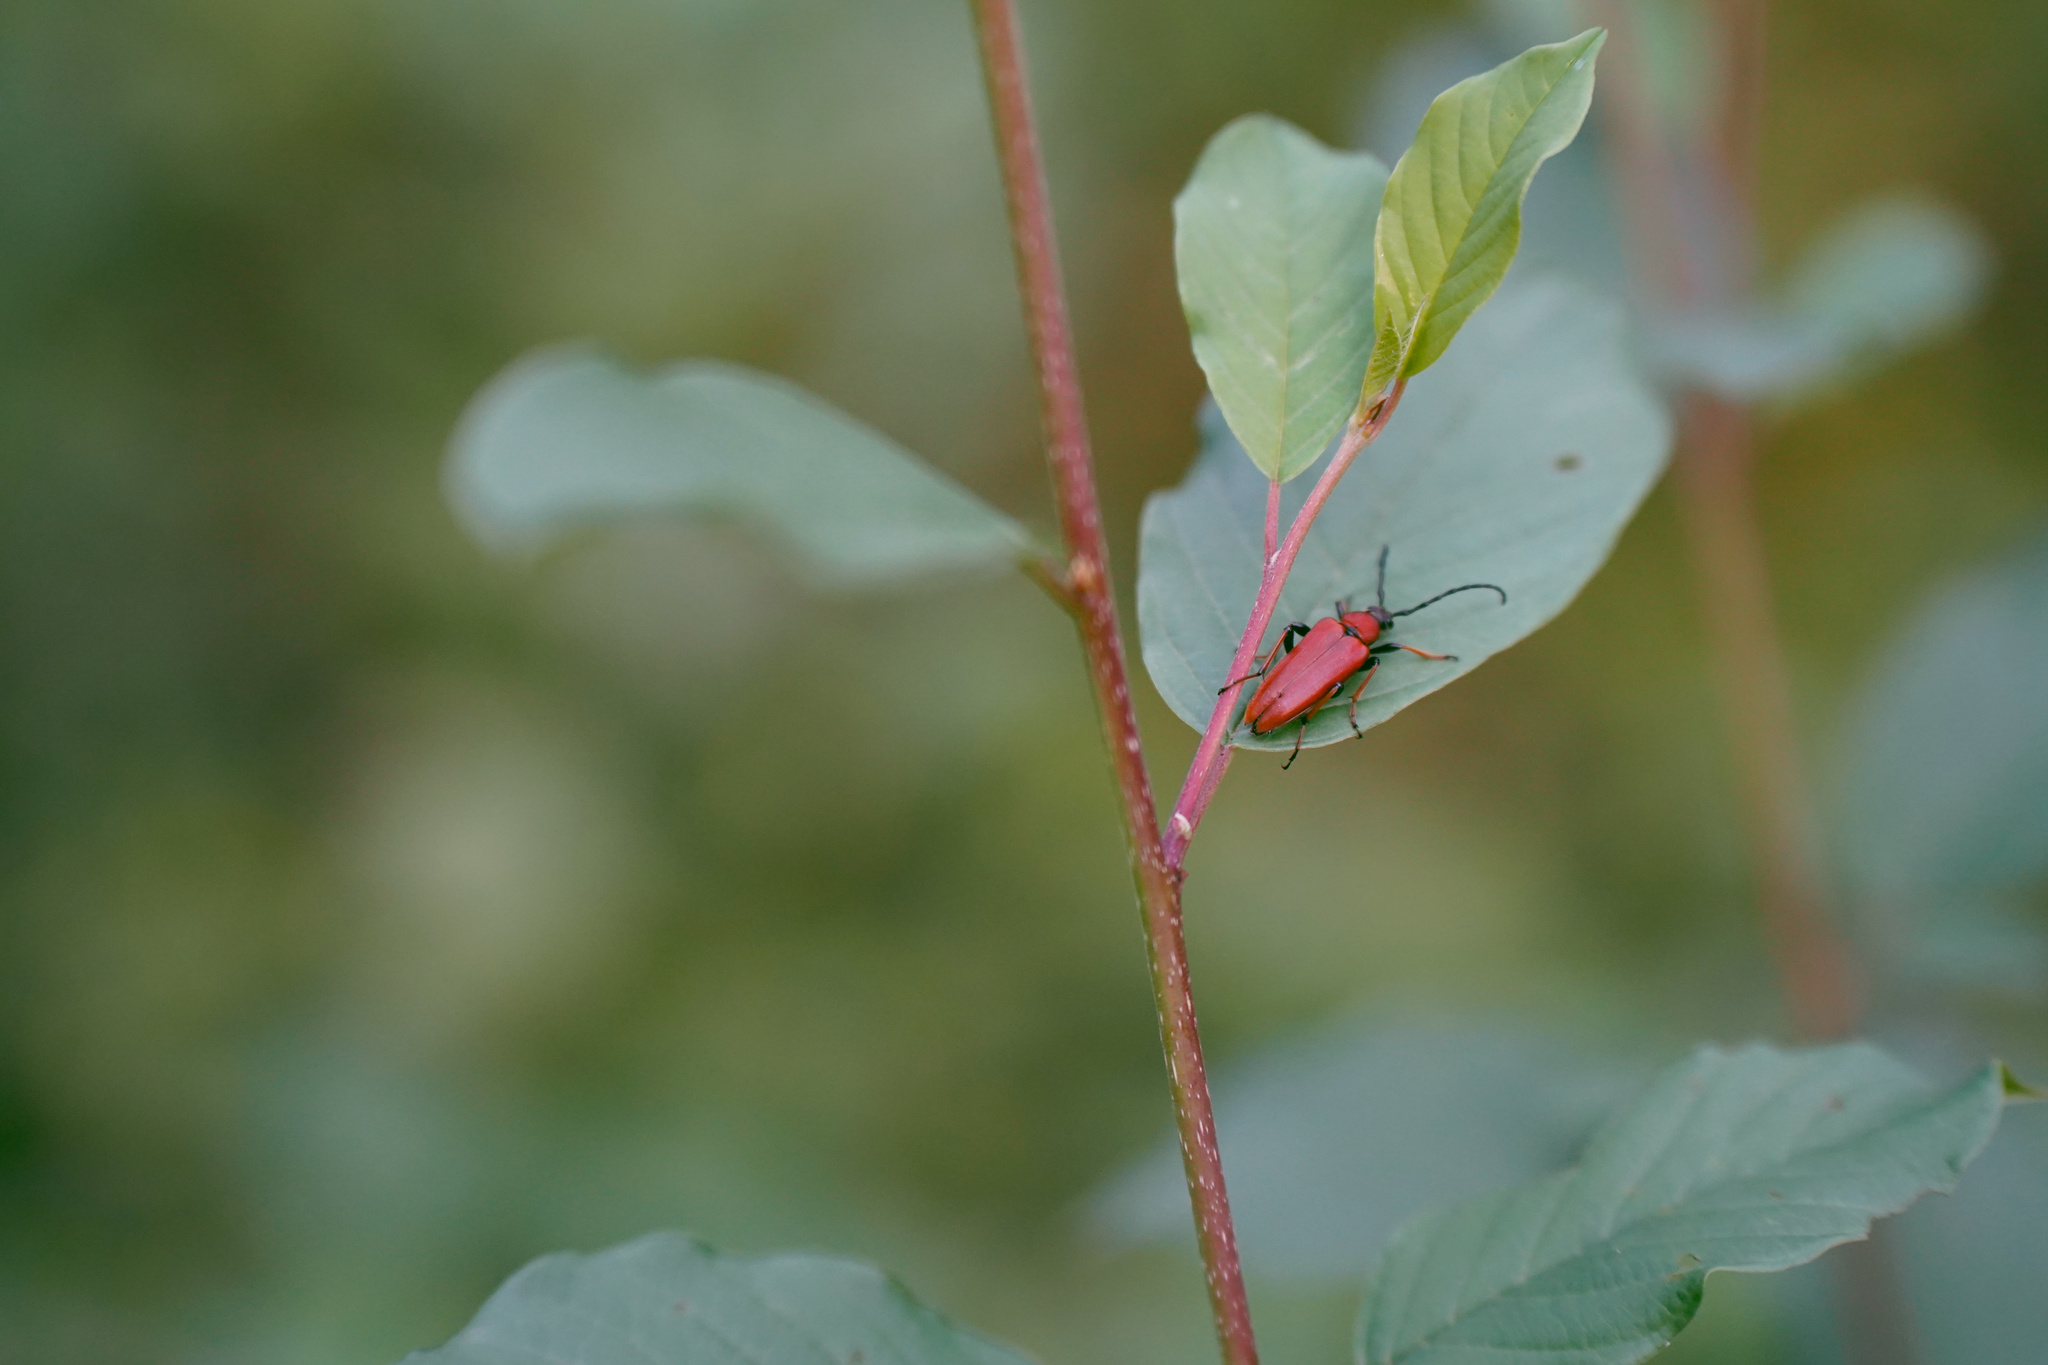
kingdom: Animalia
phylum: Arthropoda
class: Insecta
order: Coleoptera
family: Cerambycidae
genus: Stictoleptura
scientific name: Stictoleptura rubra
